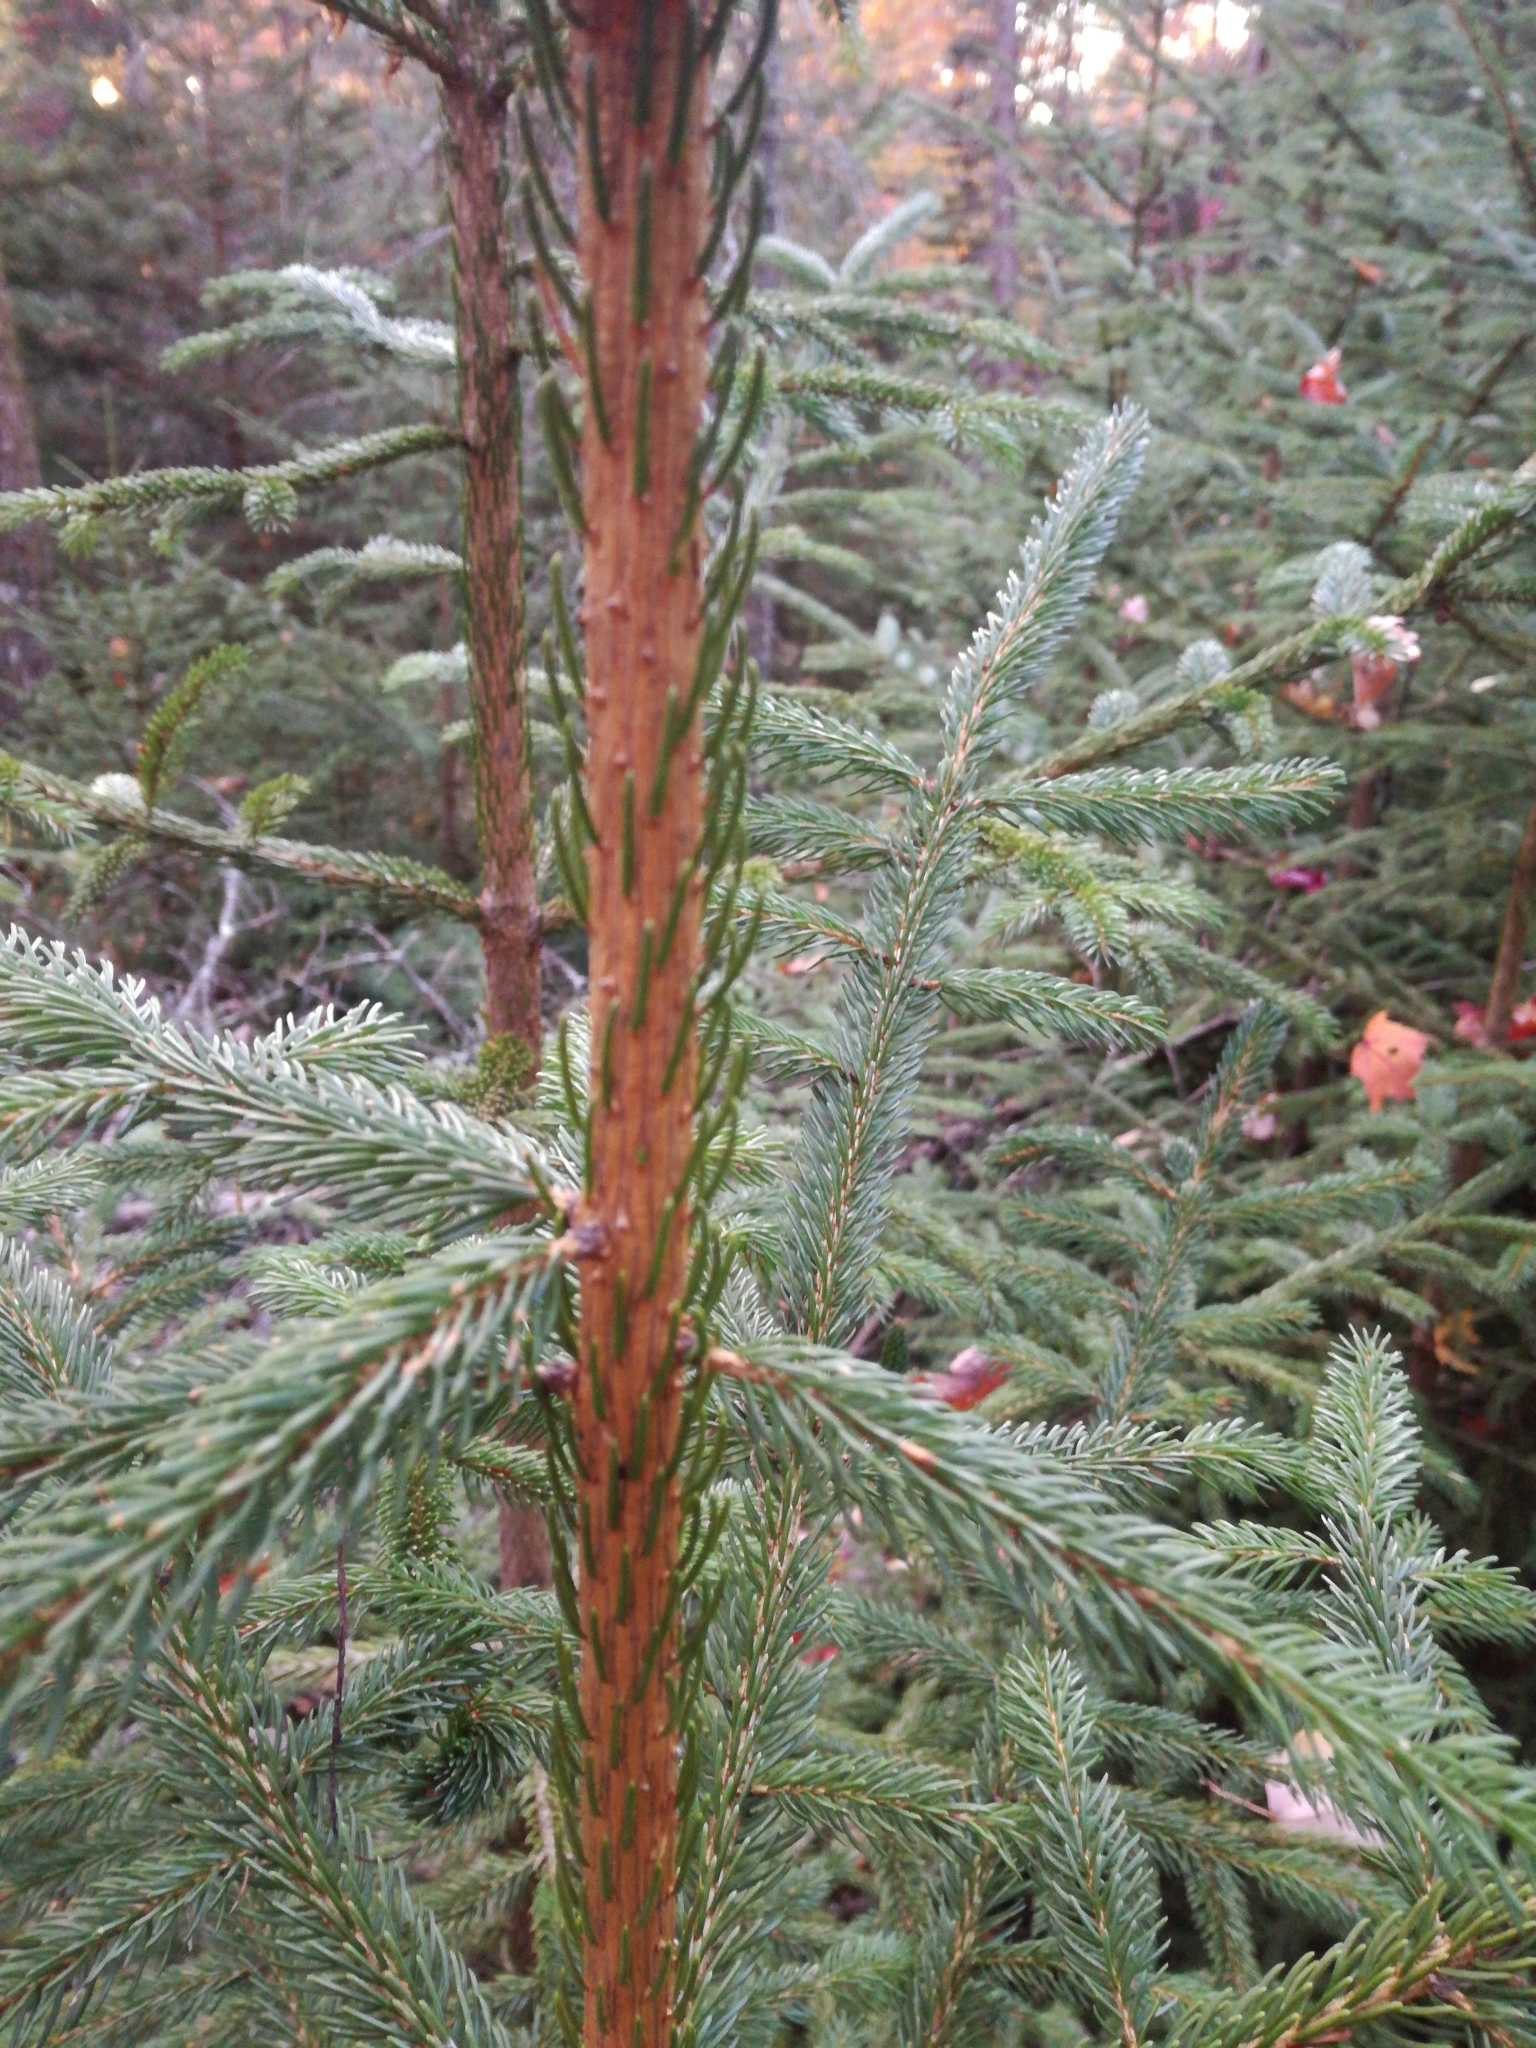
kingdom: Plantae
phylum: Tracheophyta
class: Pinopsida
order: Pinales
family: Pinaceae
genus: Picea
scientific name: Picea rubens
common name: Red spruce
